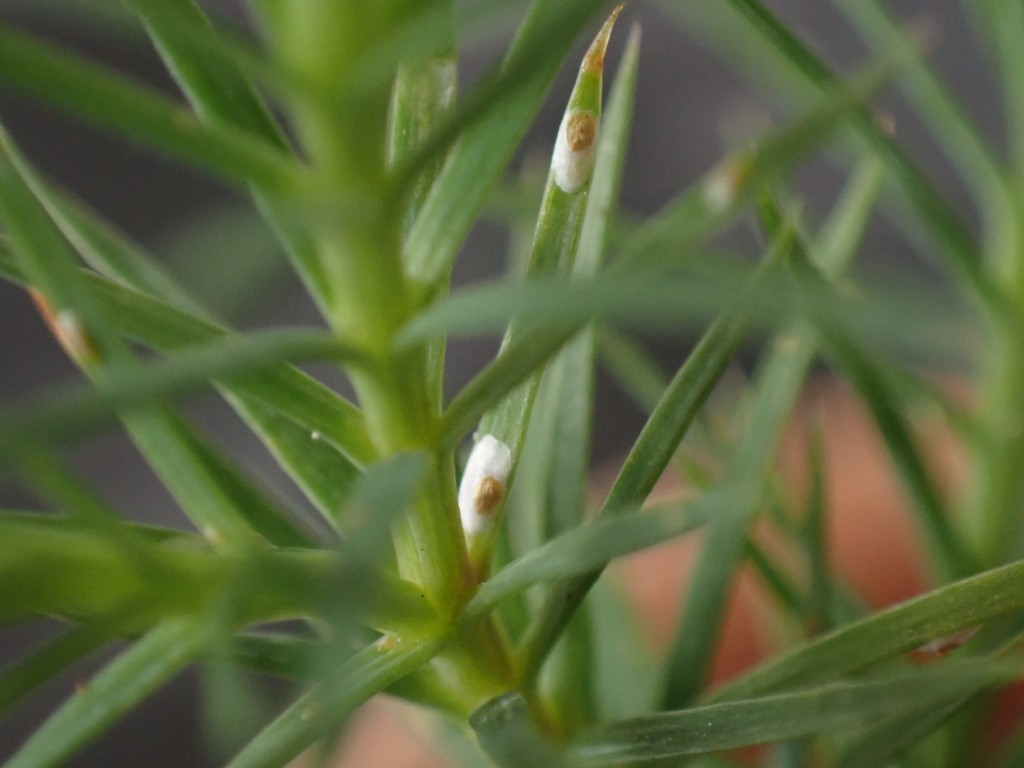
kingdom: Animalia
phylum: Arthropoda
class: Insecta
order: Hemiptera
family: Diaspididae
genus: Carulaspis
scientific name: Carulaspis minima
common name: Minute cypress scale
